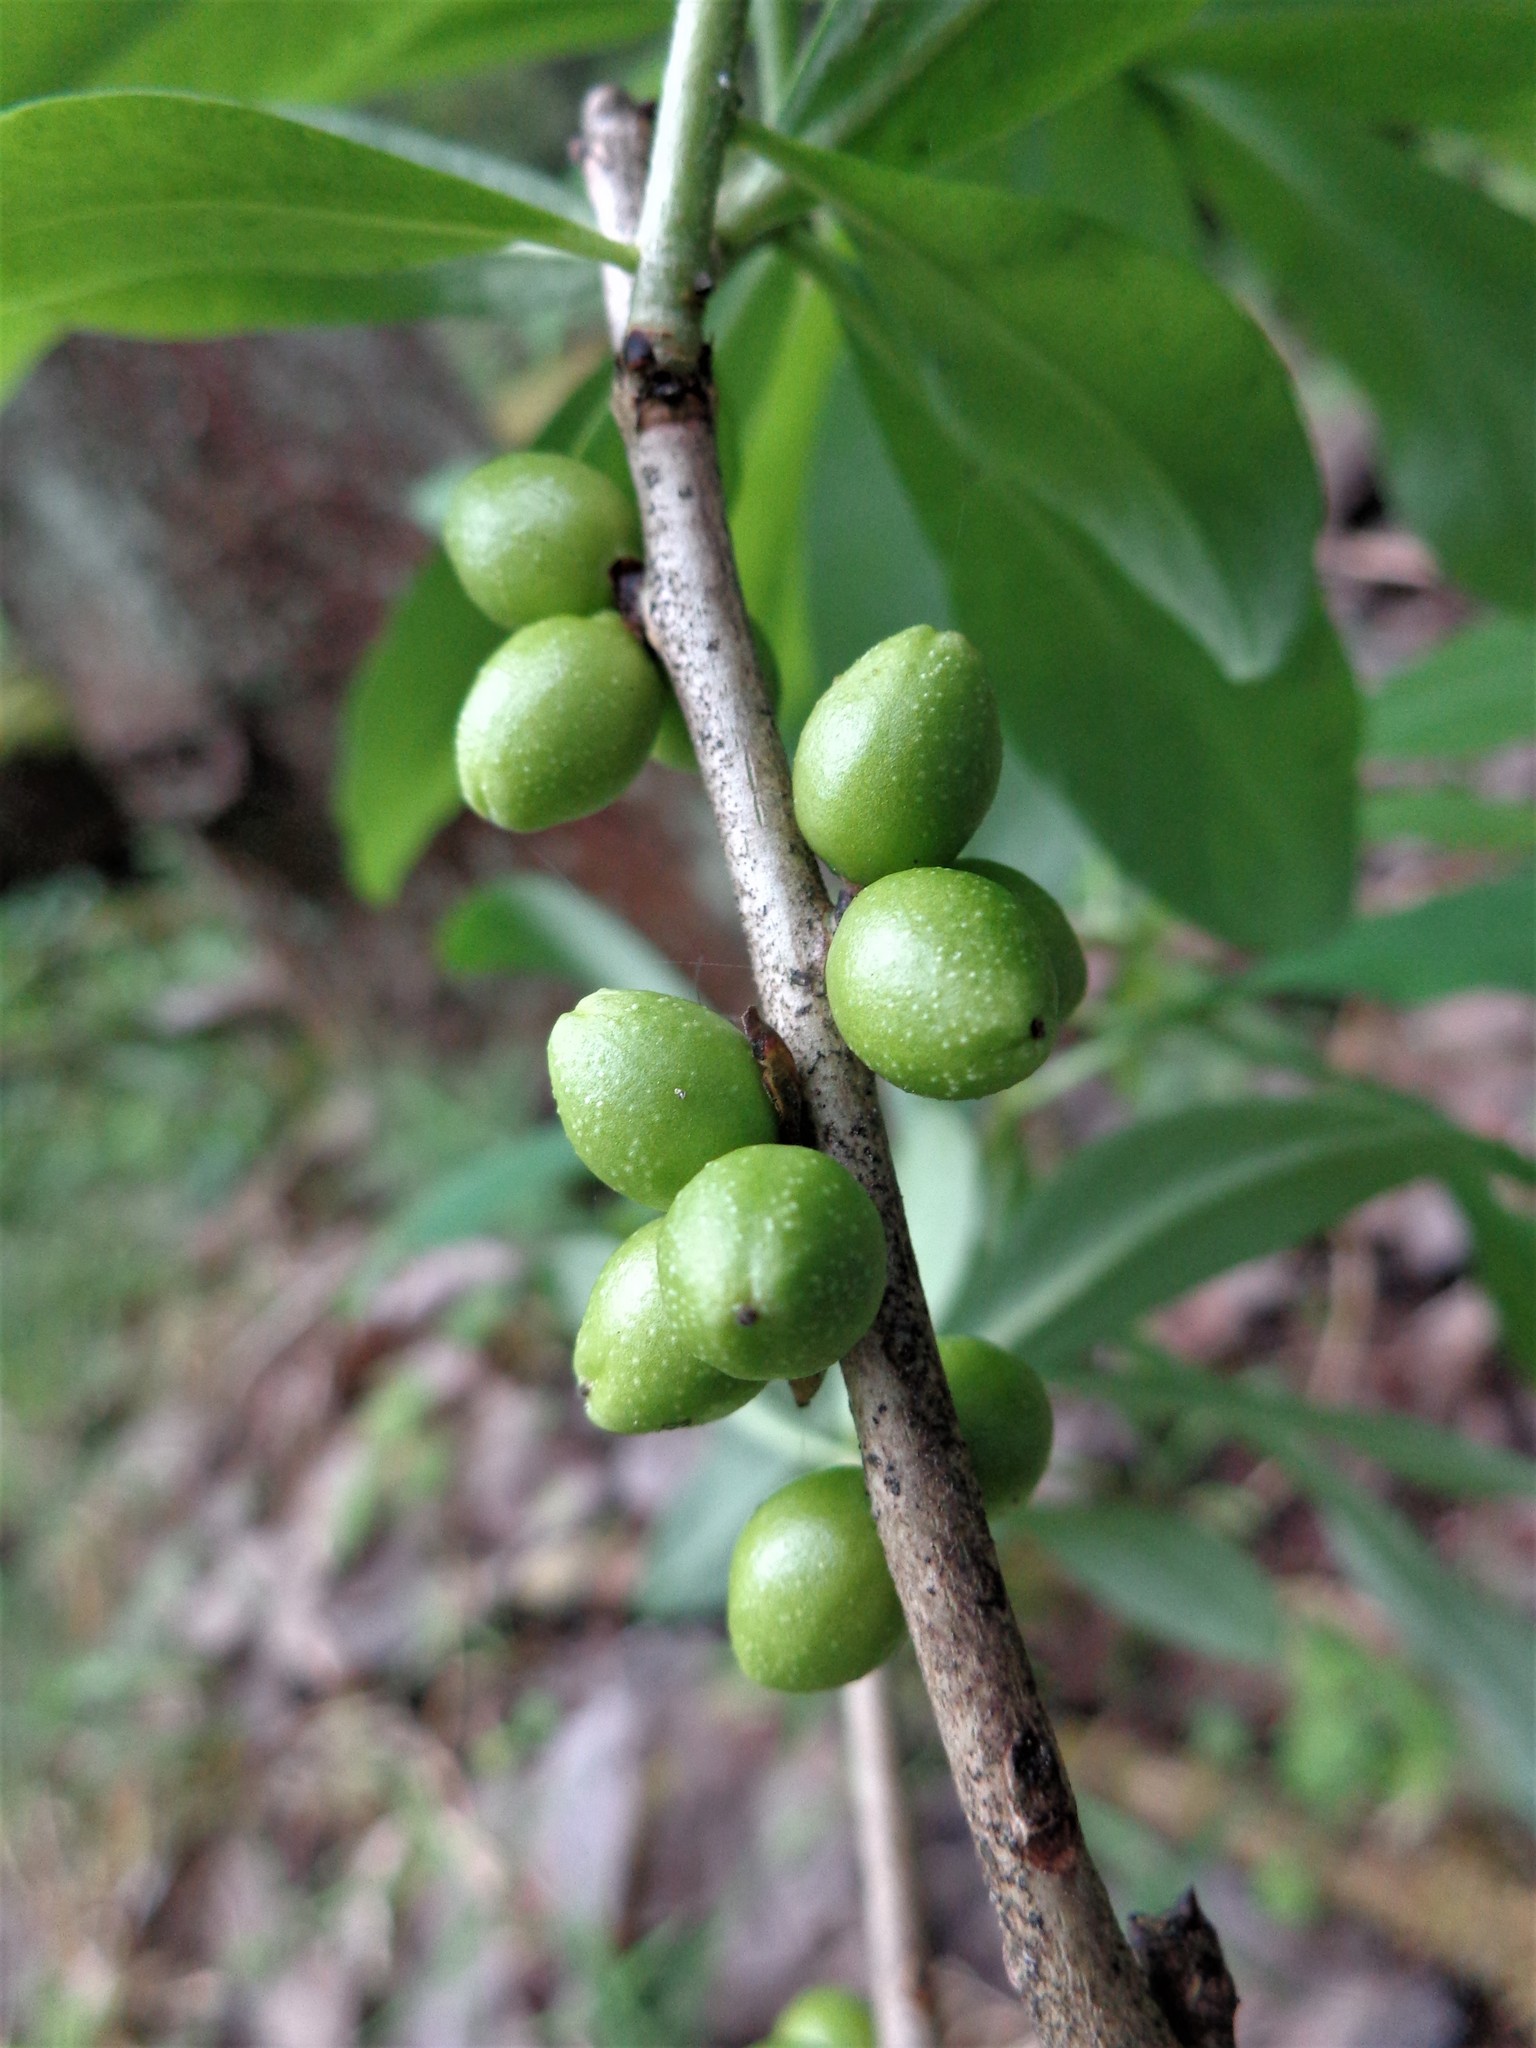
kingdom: Plantae
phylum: Tracheophyta
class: Magnoliopsida
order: Malvales
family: Thymelaeaceae
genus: Daphne
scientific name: Daphne mezereum
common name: Mezereon
